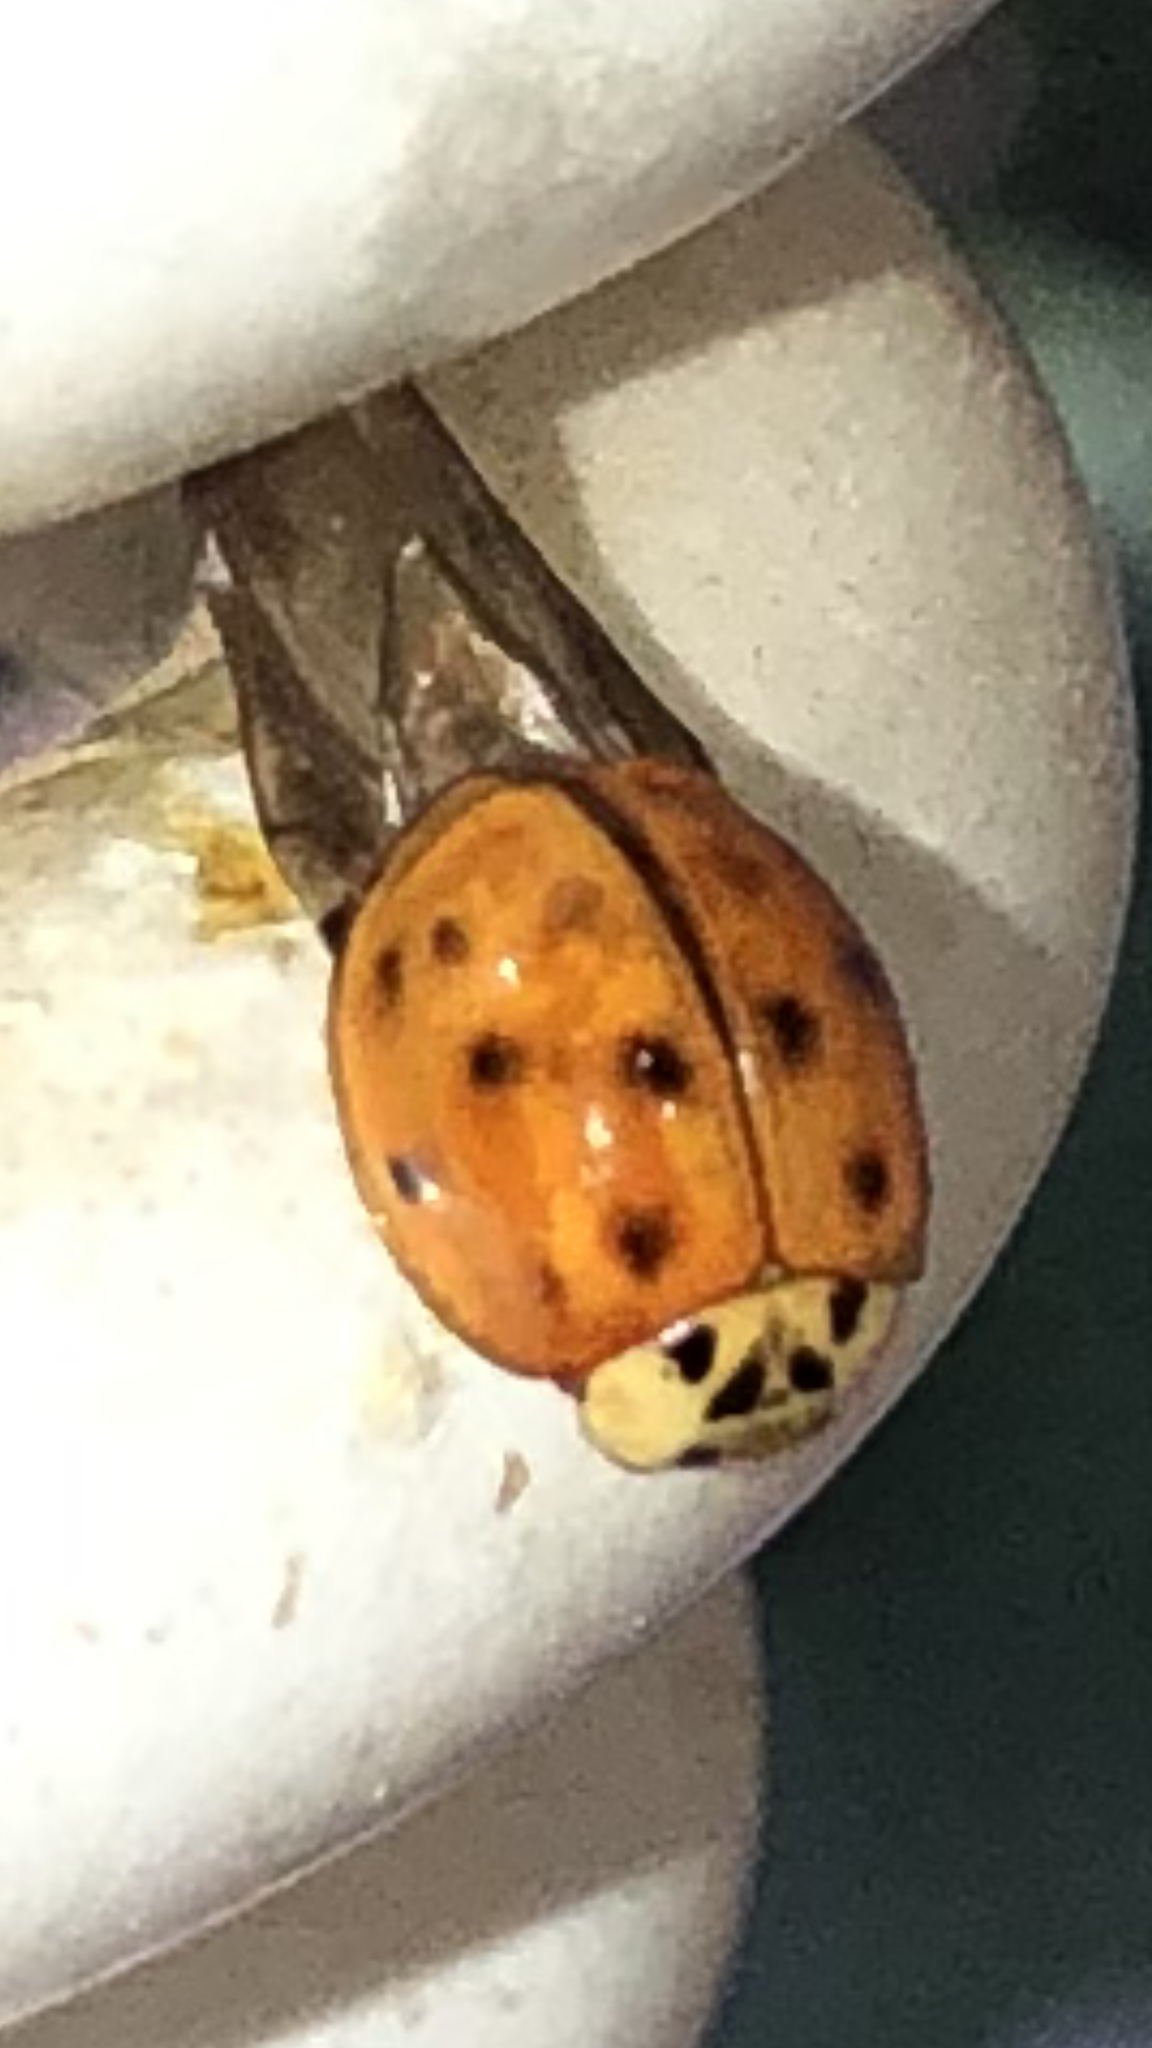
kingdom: Animalia
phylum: Arthropoda
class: Insecta
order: Coleoptera
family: Coccinellidae
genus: Harmonia
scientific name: Harmonia axyridis
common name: Harlequin ladybird
